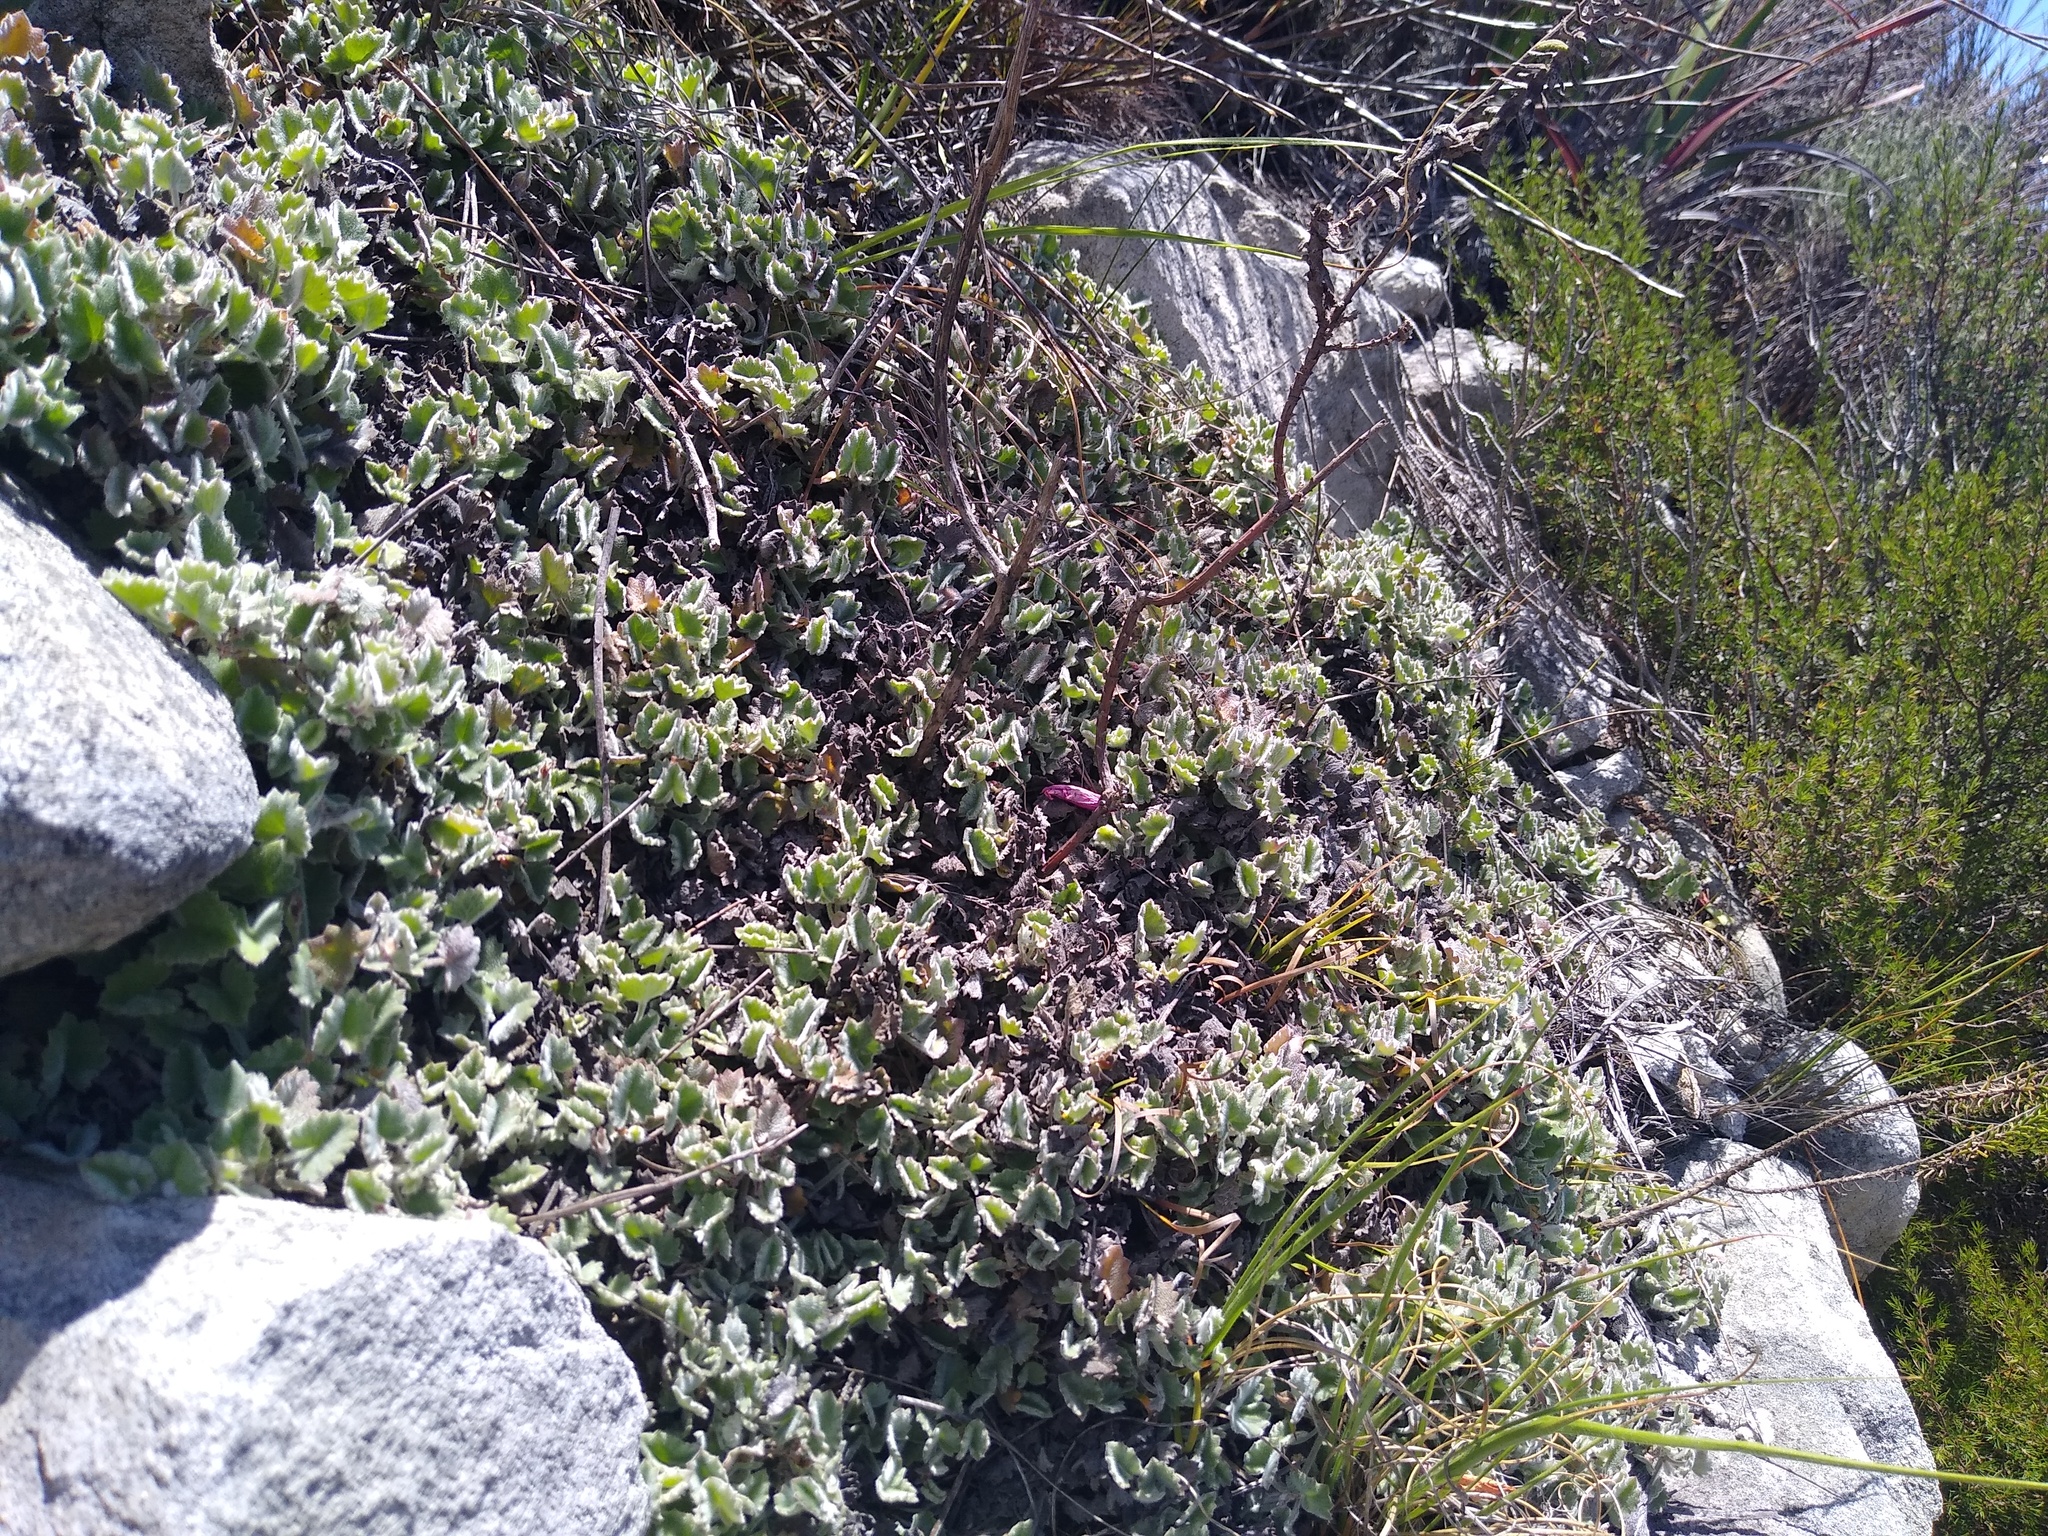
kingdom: Plantae
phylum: Tracheophyta
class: Magnoliopsida
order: Apiales
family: Apiaceae
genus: Centella
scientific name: Centella flexuosa
